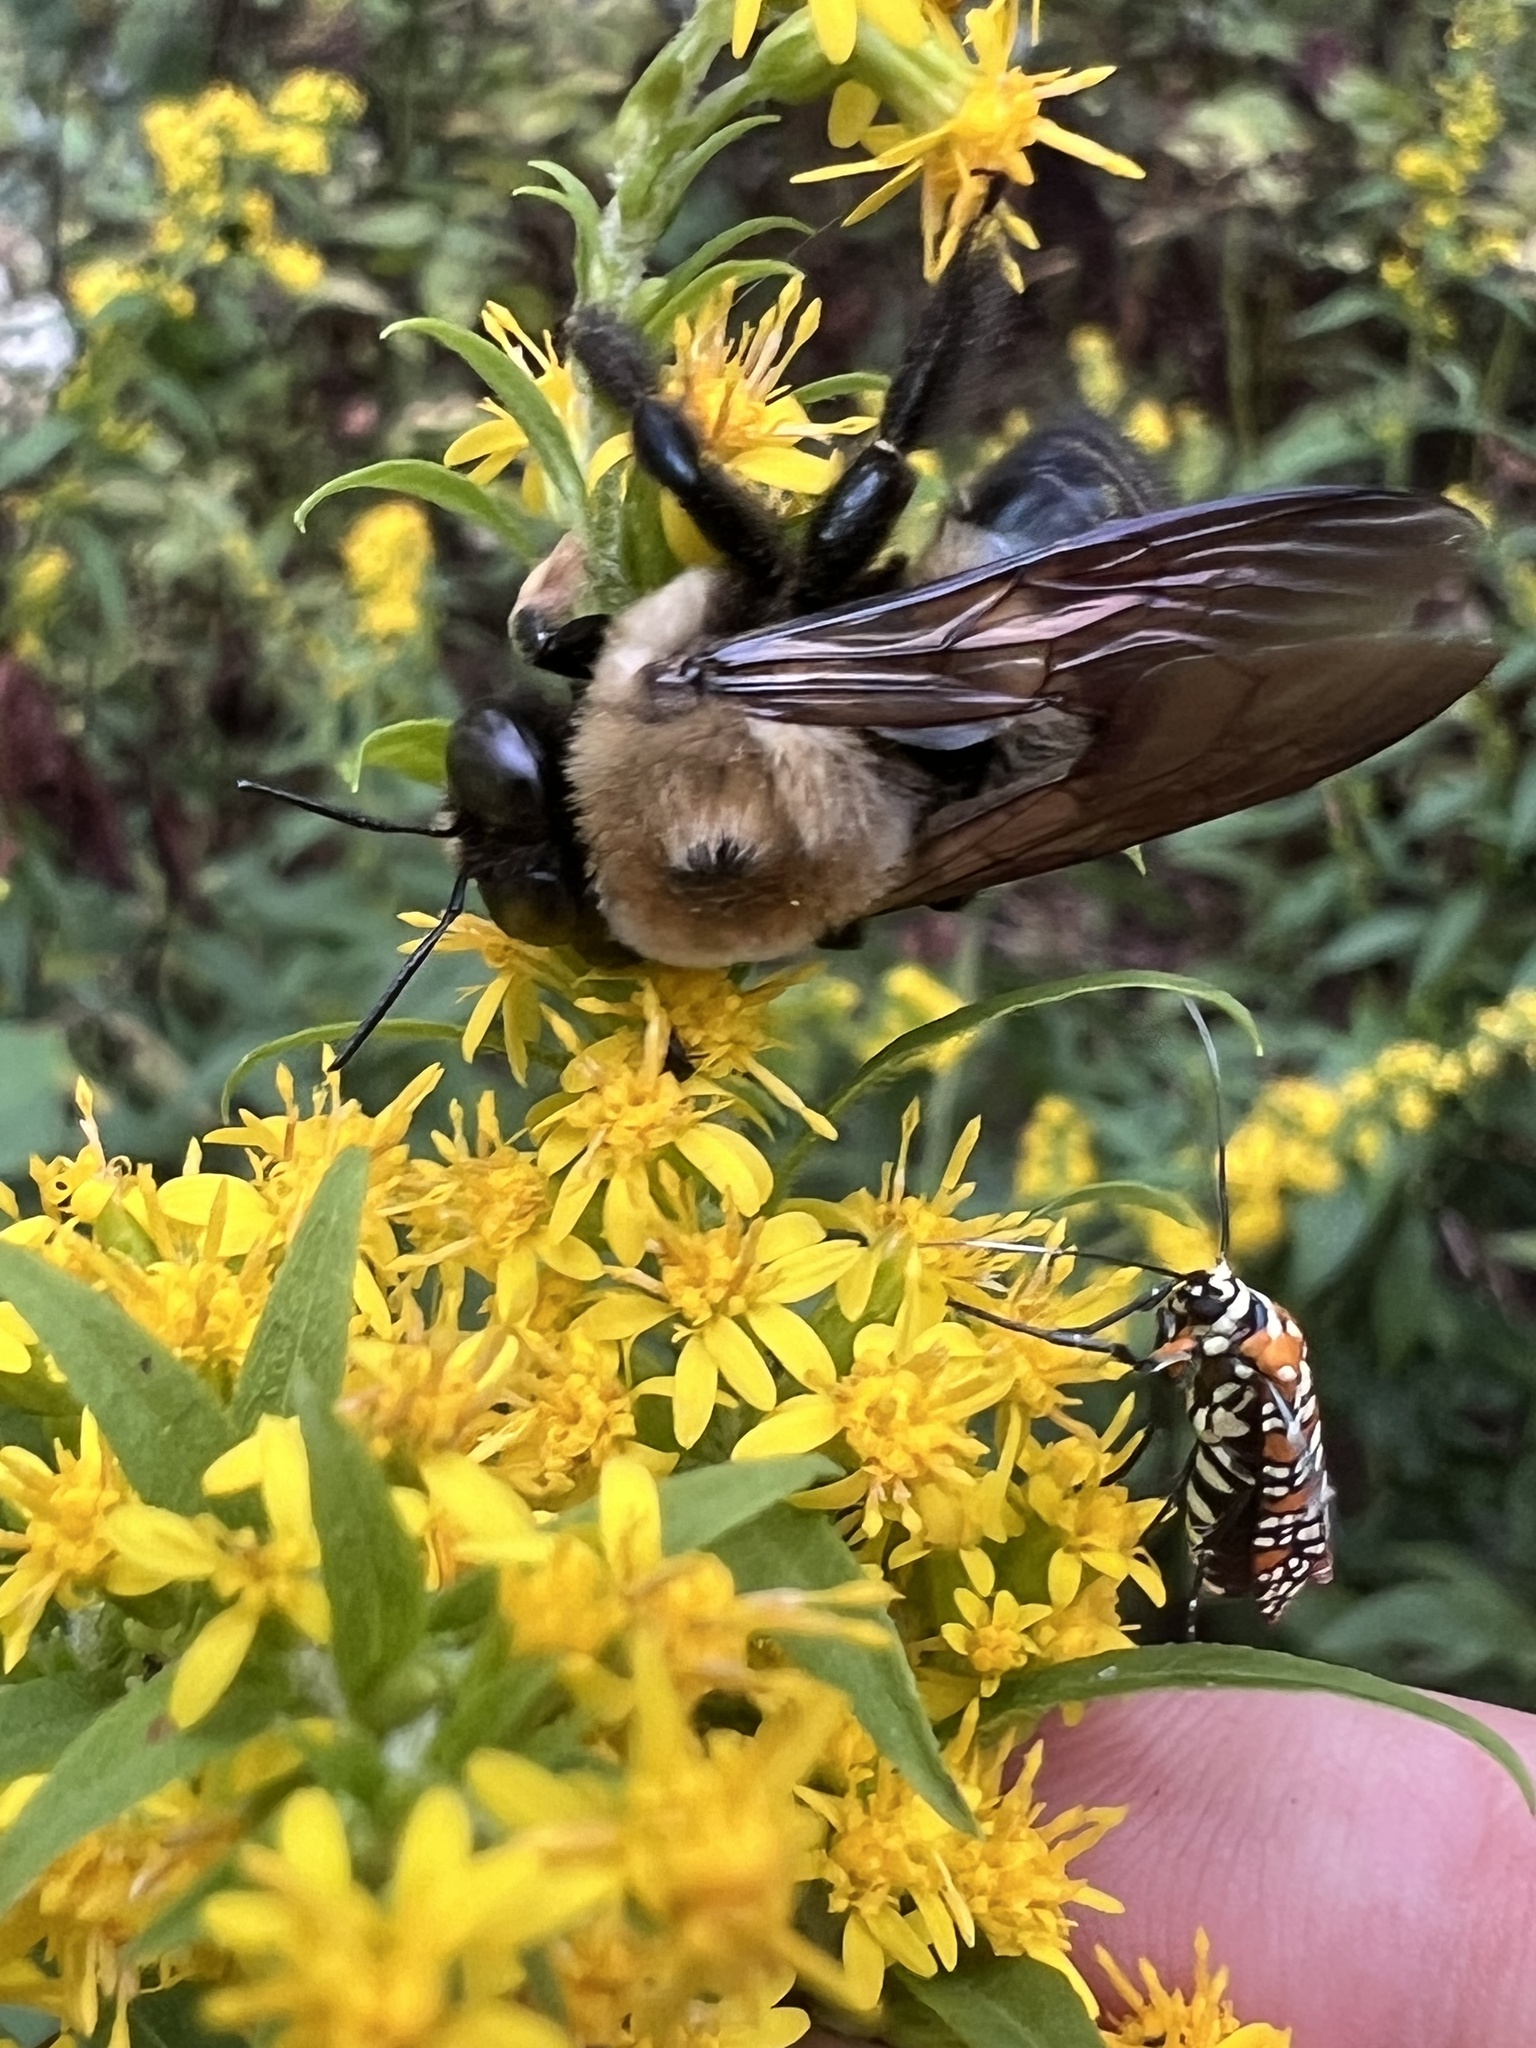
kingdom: Animalia
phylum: Arthropoda
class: Insecta
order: Hymenoptera
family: Apidae
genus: Xylocopa
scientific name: Xylocopa virginica
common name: Carpenter bee
